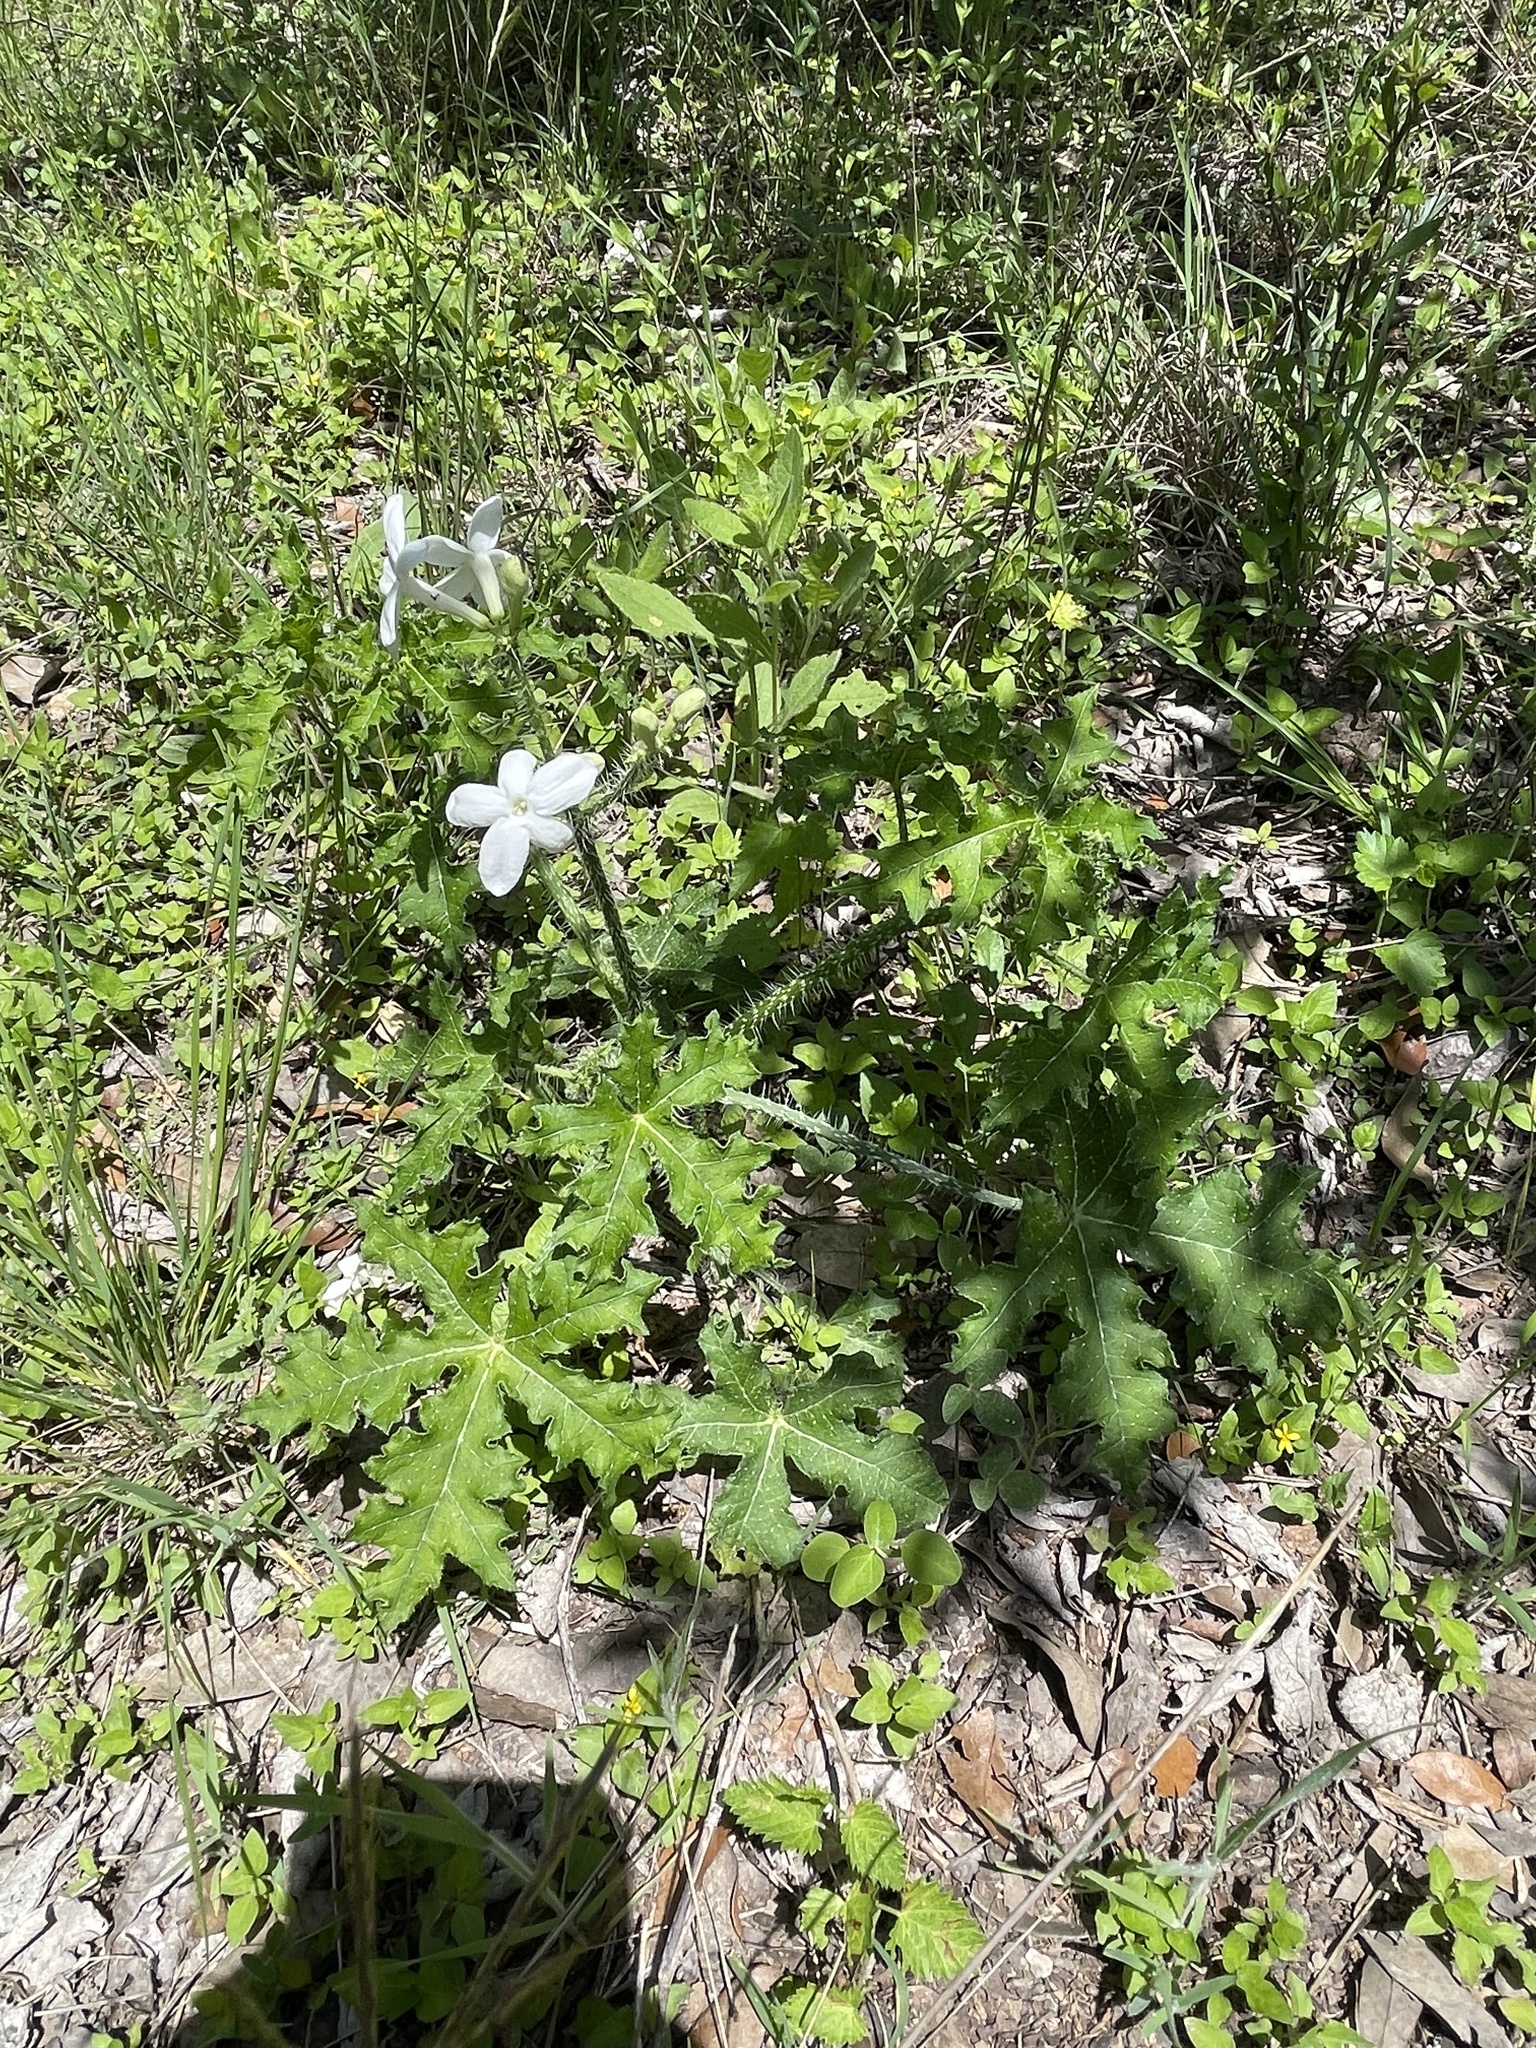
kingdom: Plantae
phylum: Tracheophyta
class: Magnoliopsida
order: Malpighiales
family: Euphorbiaceae
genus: Cnidoscolus
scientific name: Cnidoscolus texanus
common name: Texas bull-nettle
